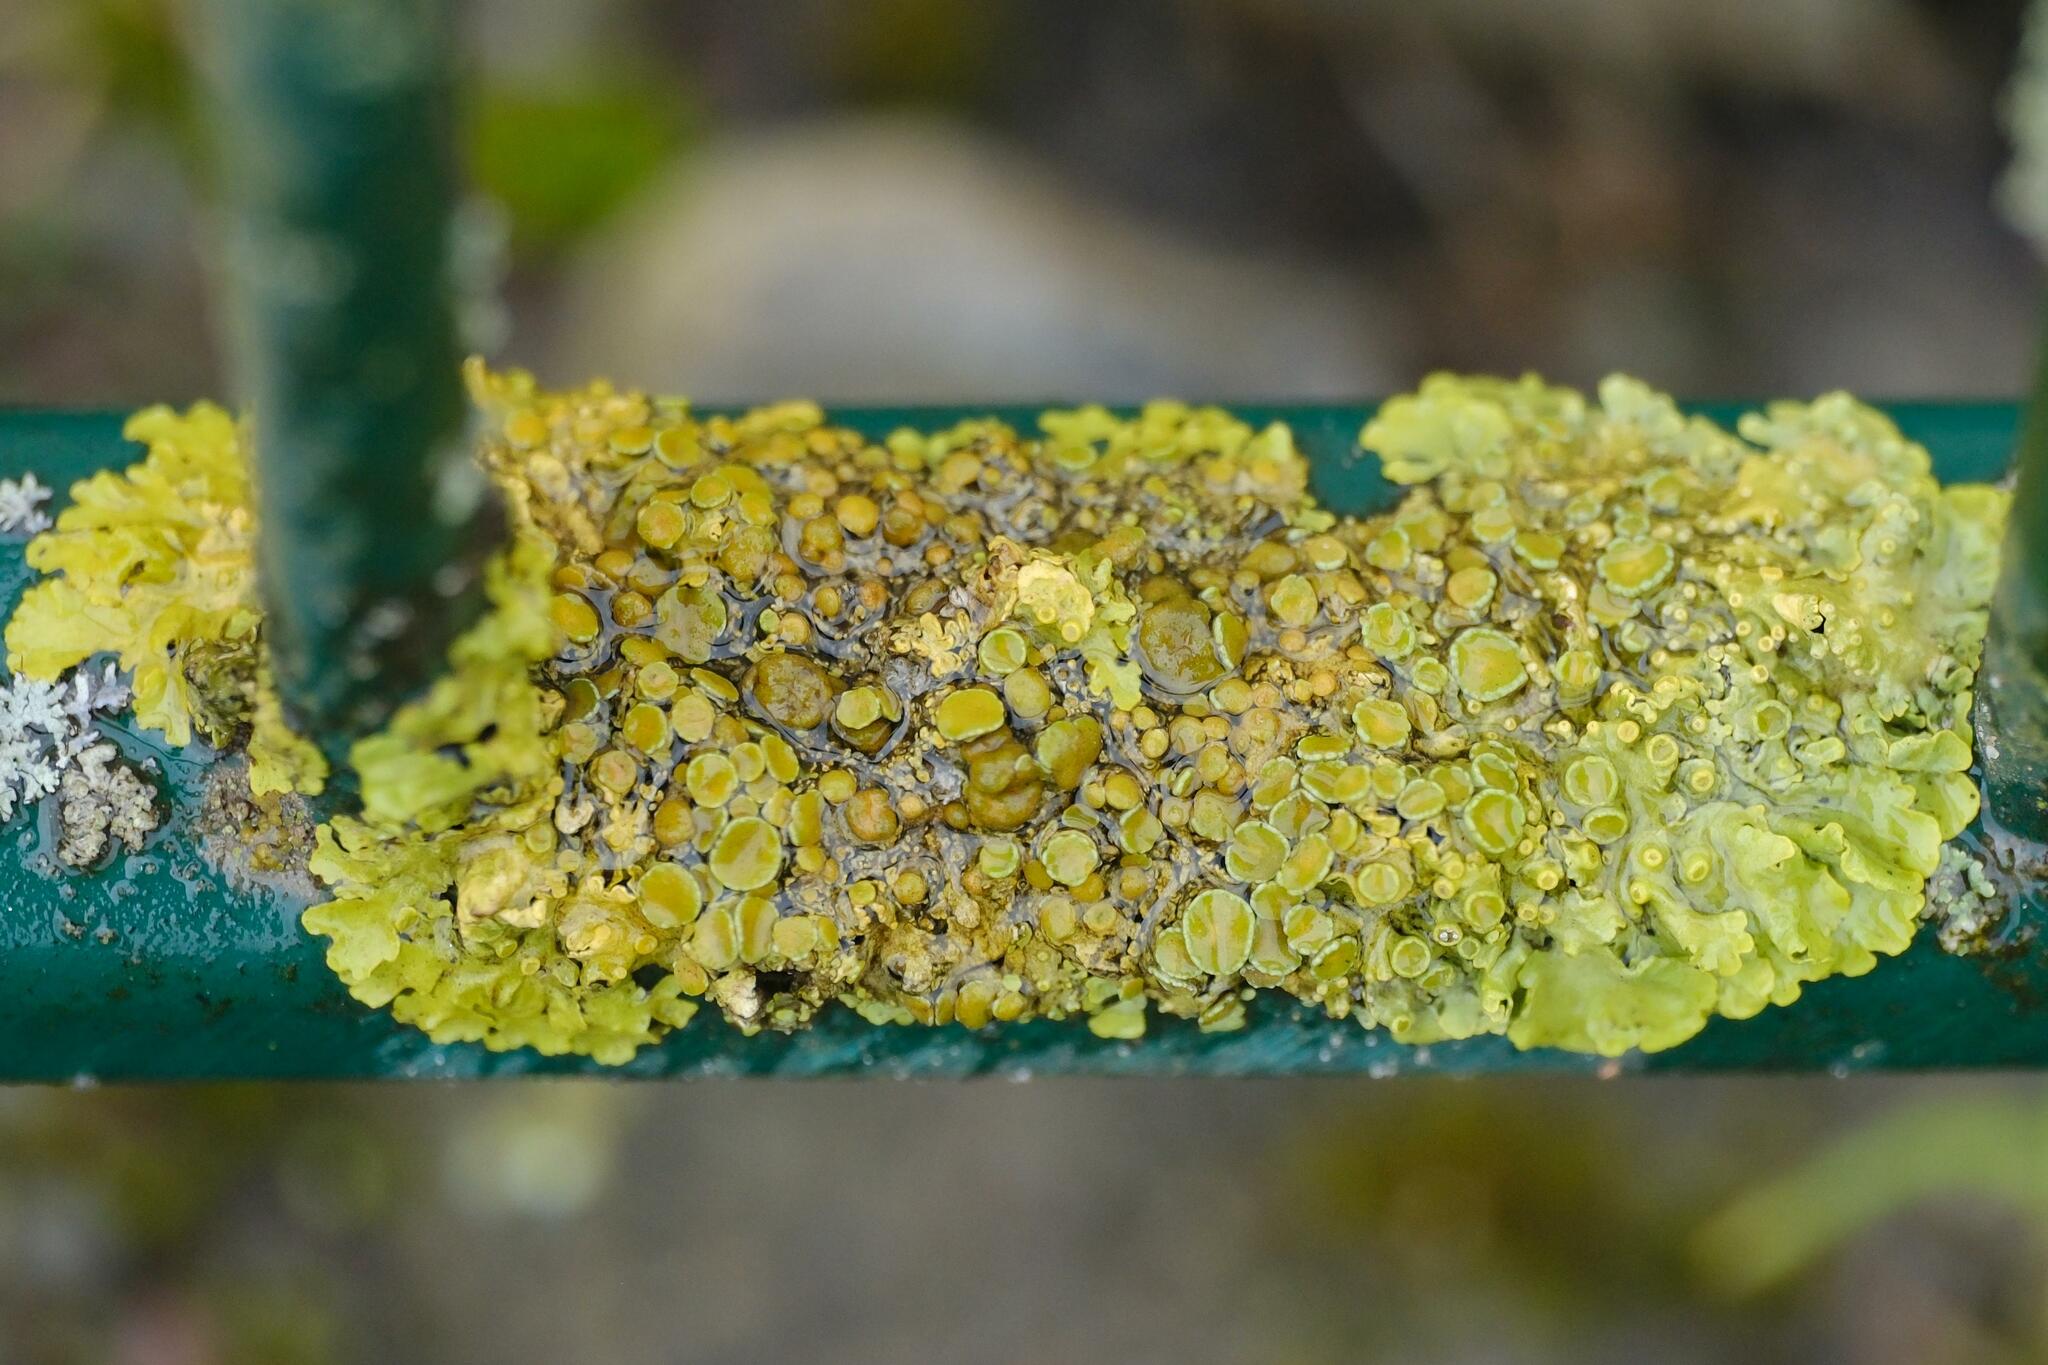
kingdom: Fungi
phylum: Ascomycota
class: Lecanoromycetes
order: Teloschistales
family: Teloschistaceae
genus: Xanthoria
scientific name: Xanthoria parietina
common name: Common orange lichen
